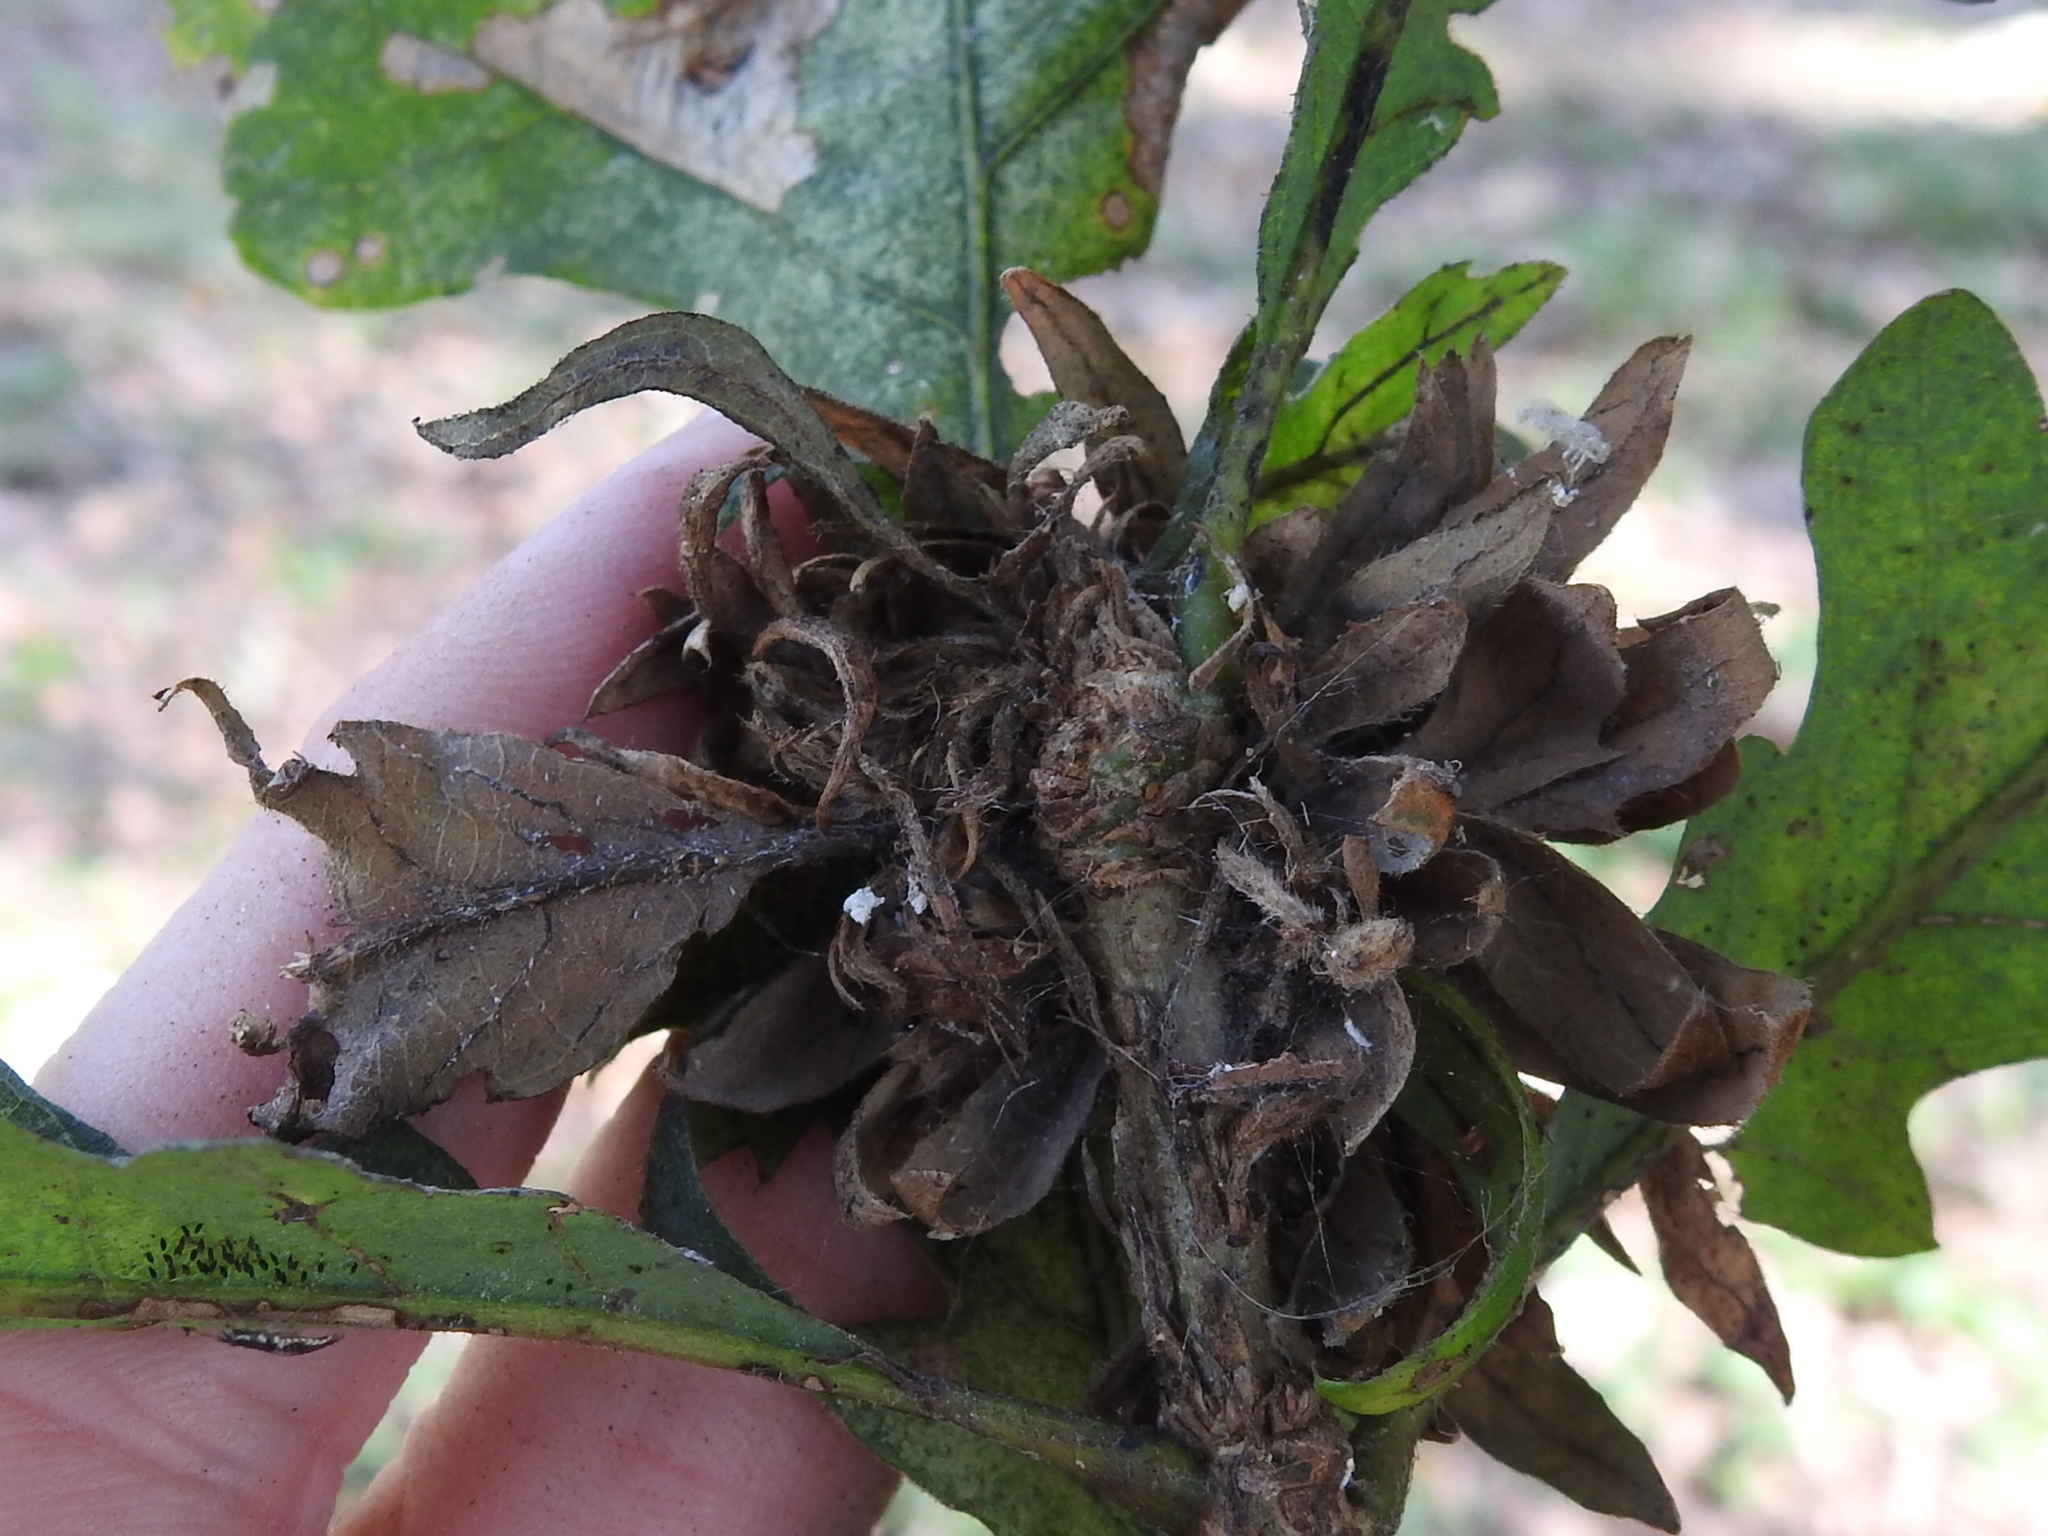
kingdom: Animalia
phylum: Arthropoda
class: Insecta
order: Hymenoptera
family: Cynipidae
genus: Andricus
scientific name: Andricus
